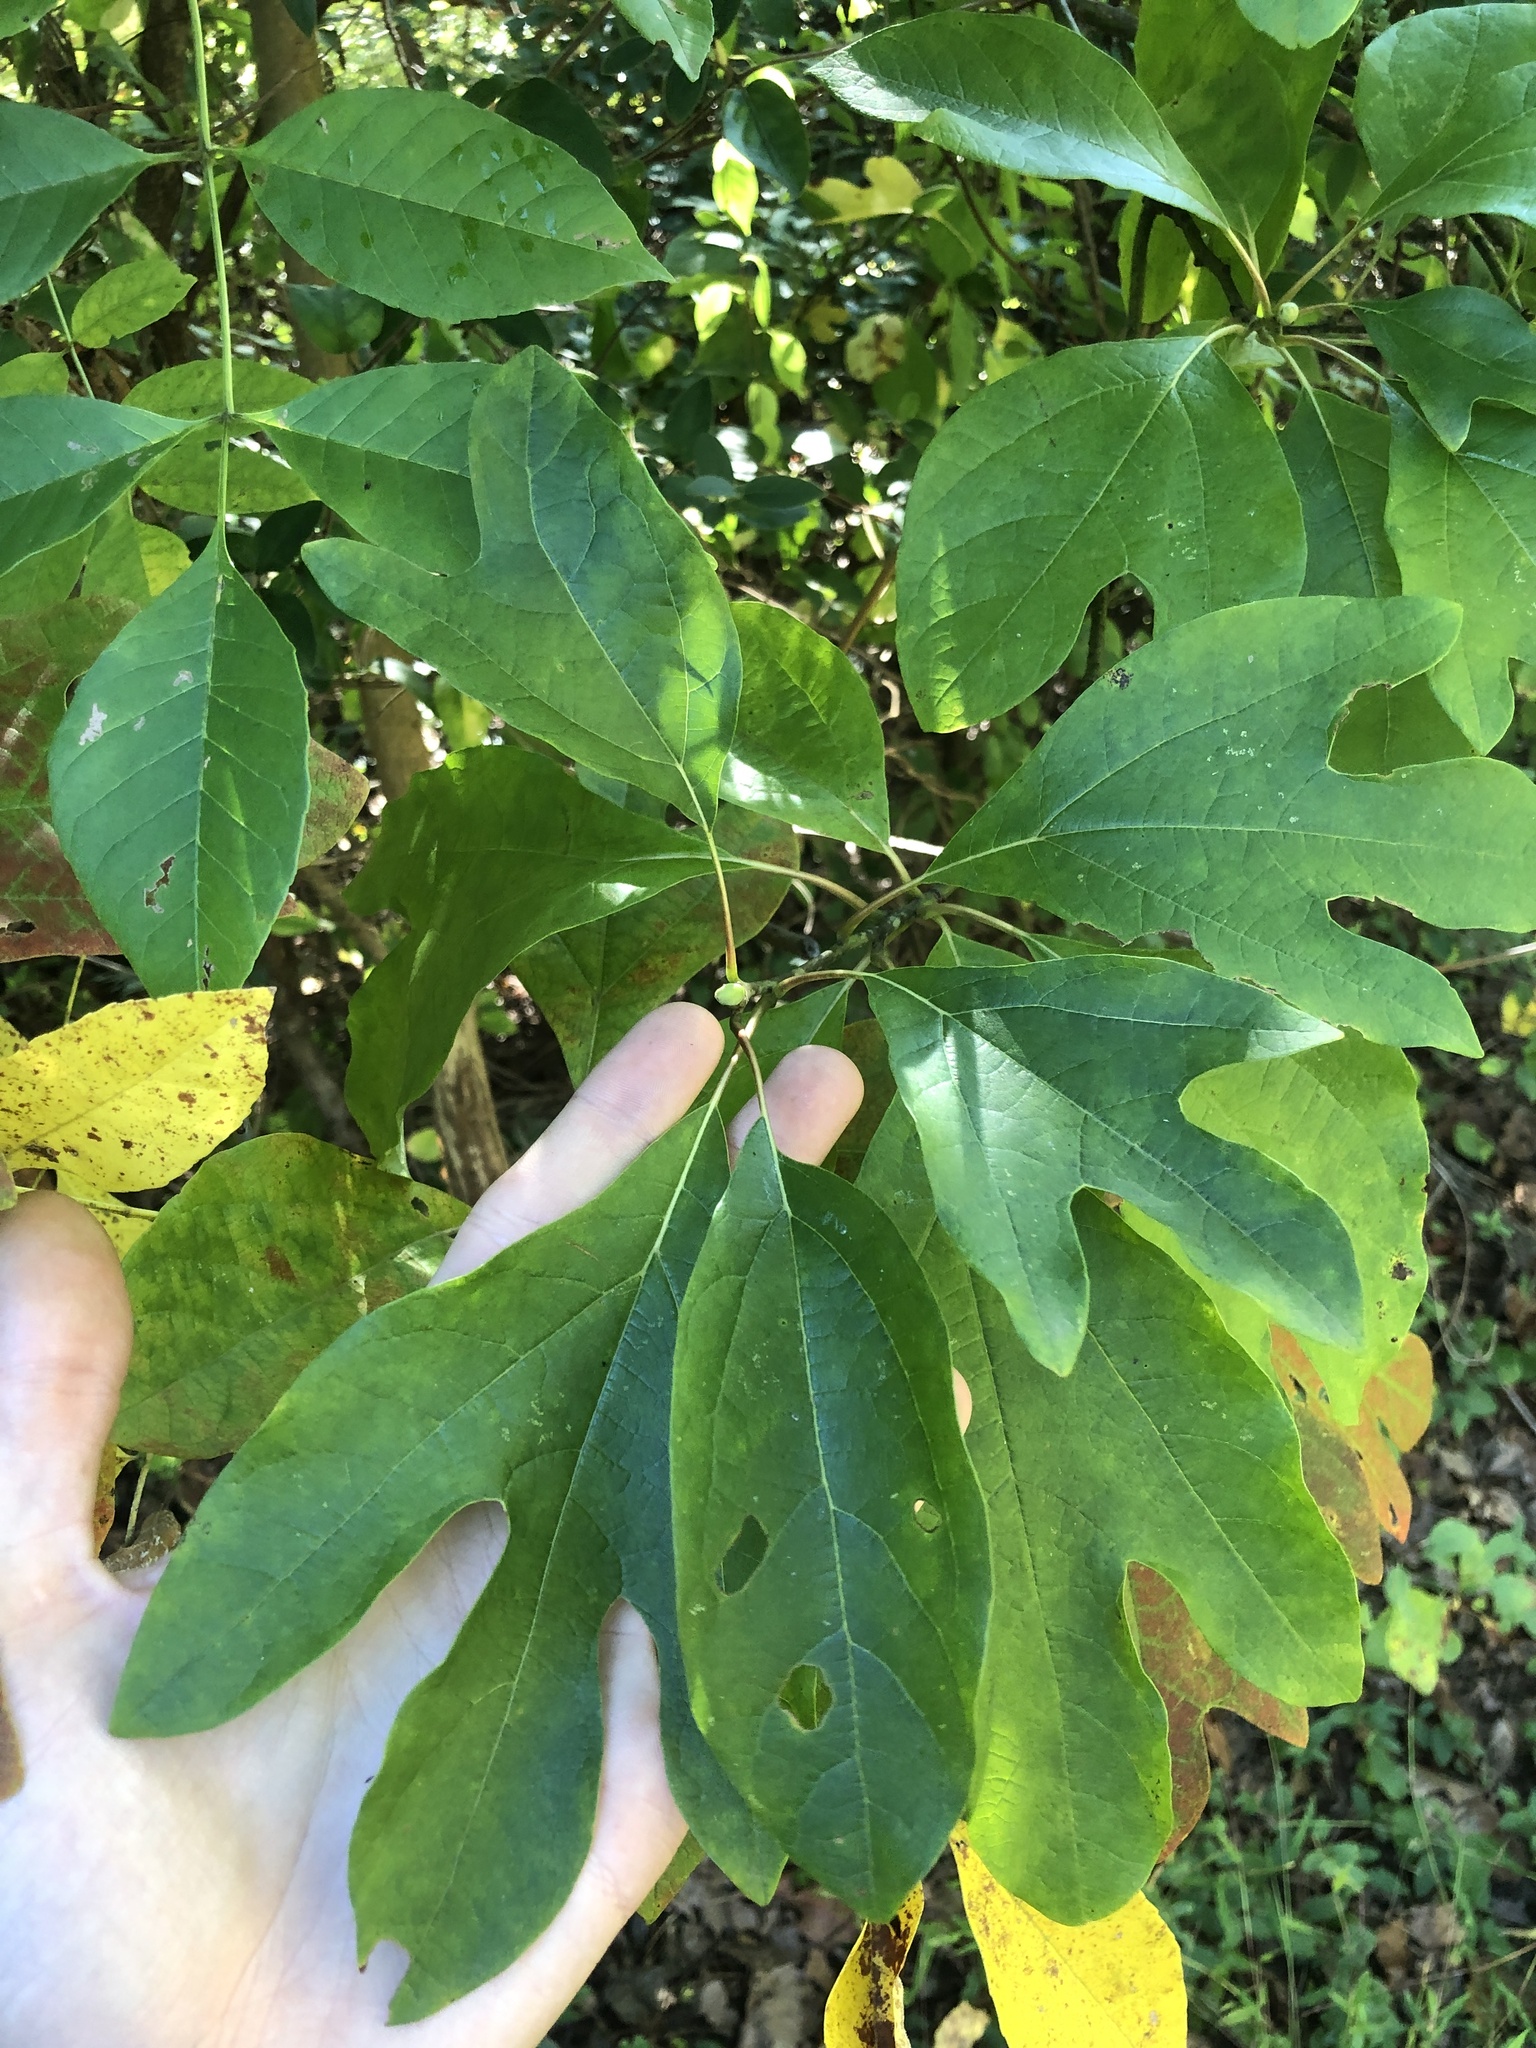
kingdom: Plantae
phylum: Tracheophyta
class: Magnoliopsida
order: Laurales
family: Lauraceae
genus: Sassafras
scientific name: Sassafras albidum
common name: Sassafras
